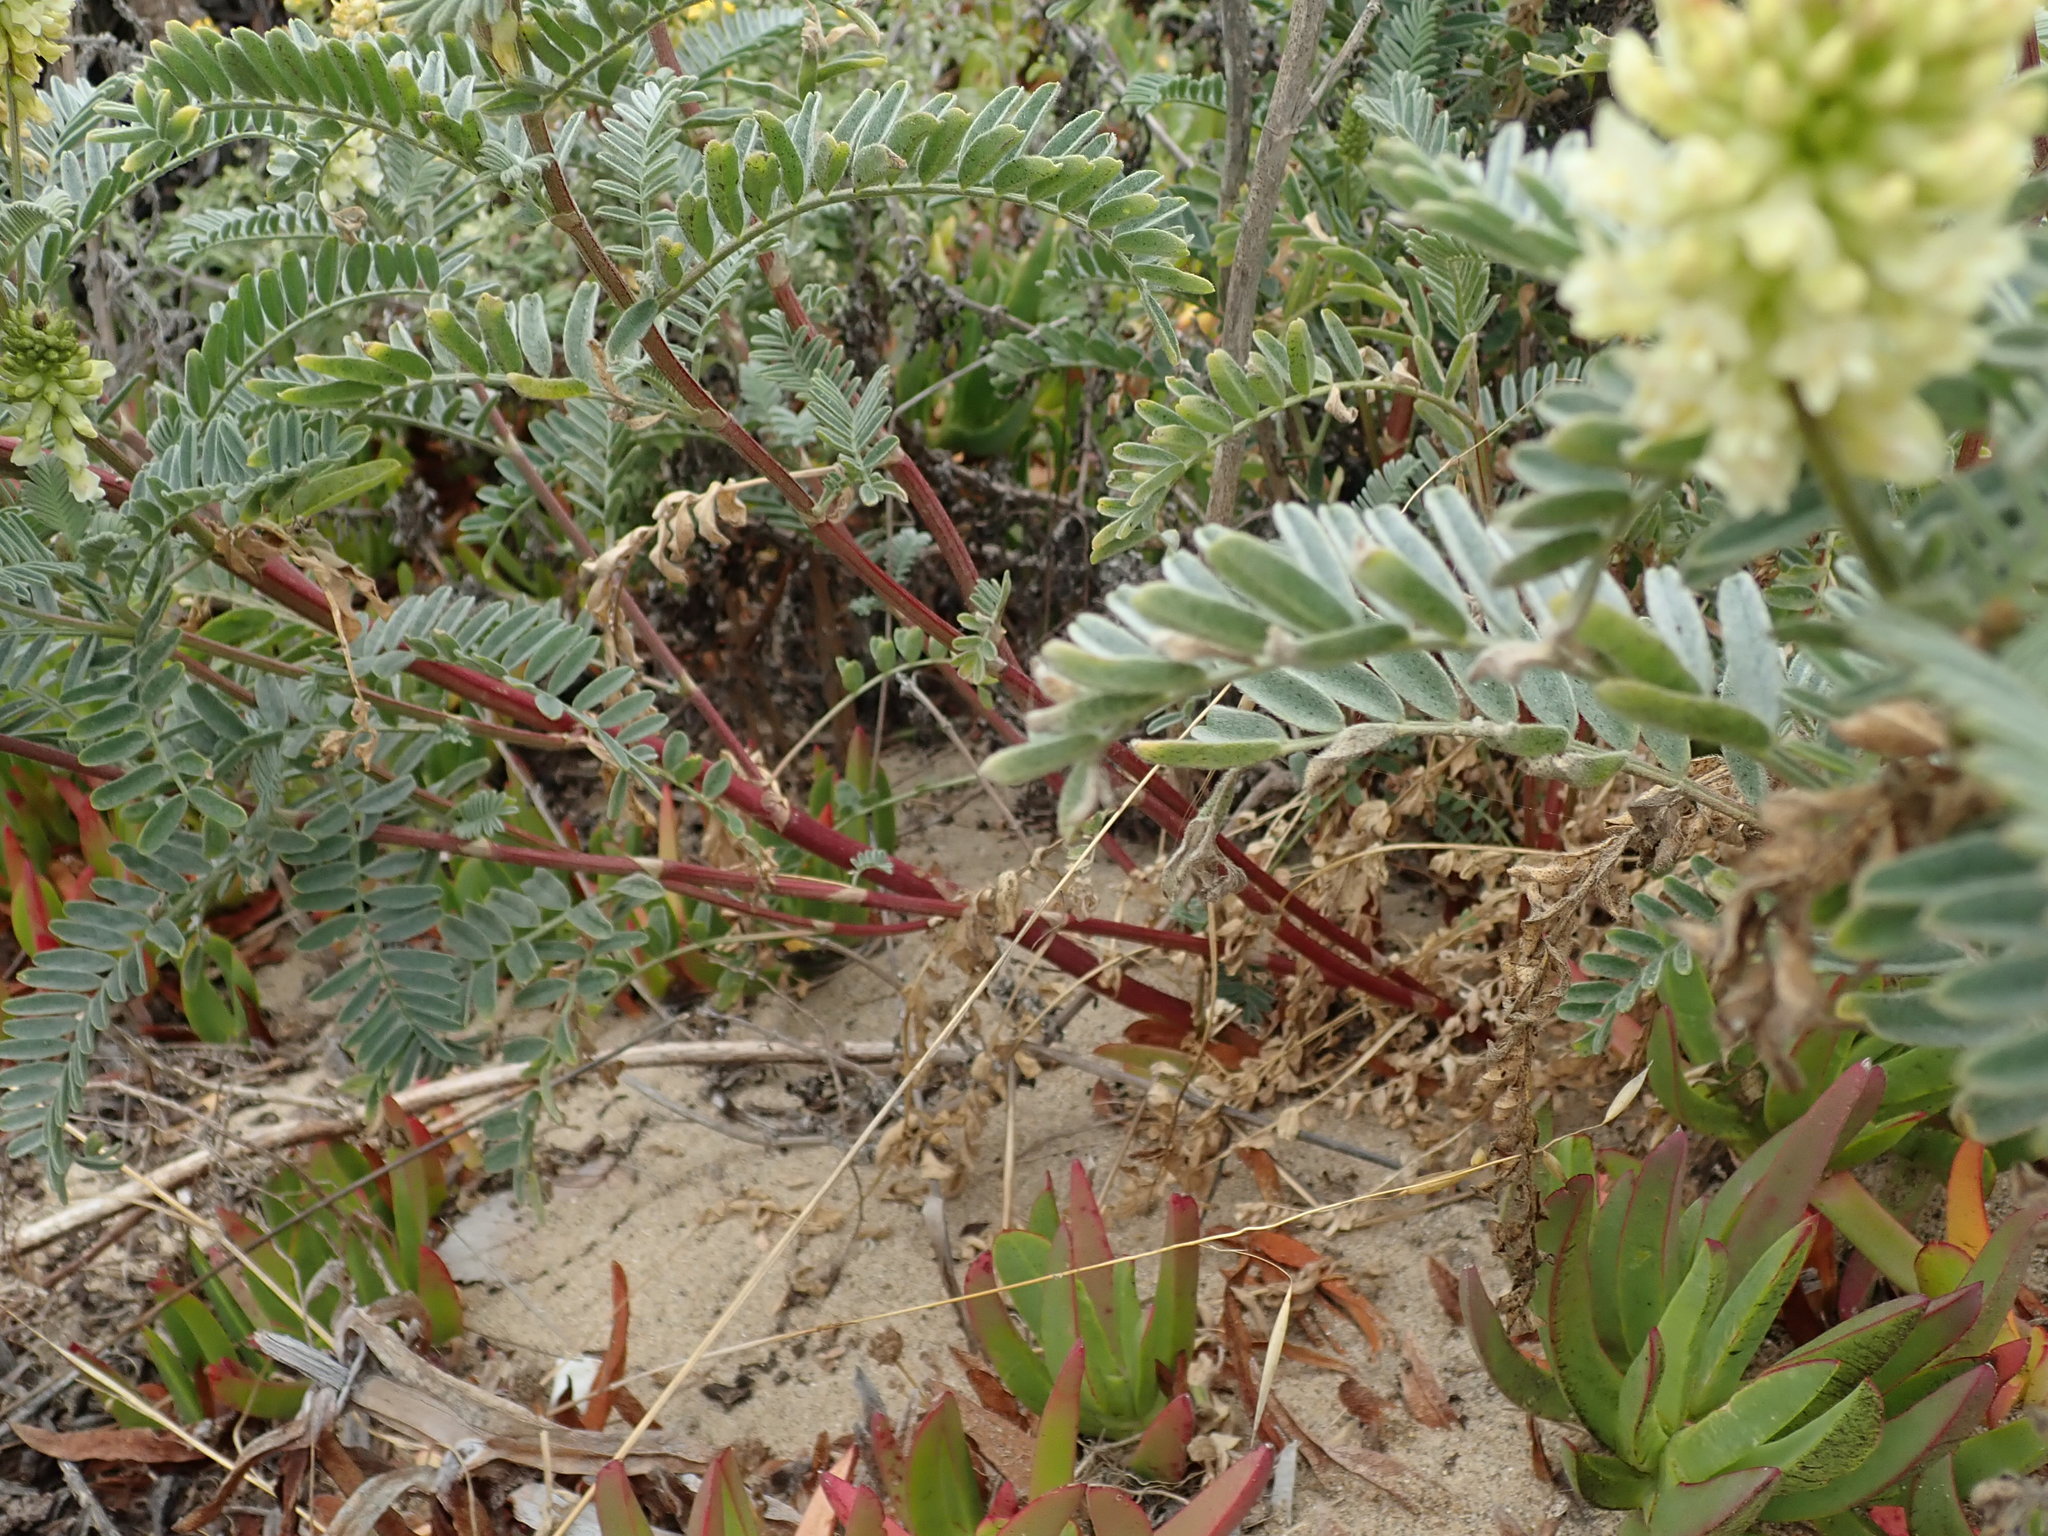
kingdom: Plantae
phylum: Tracheophyta
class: Magnoliopsida
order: Fabales
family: Fabaceae
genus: Astragalus
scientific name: Astragalus pycnostachyus
